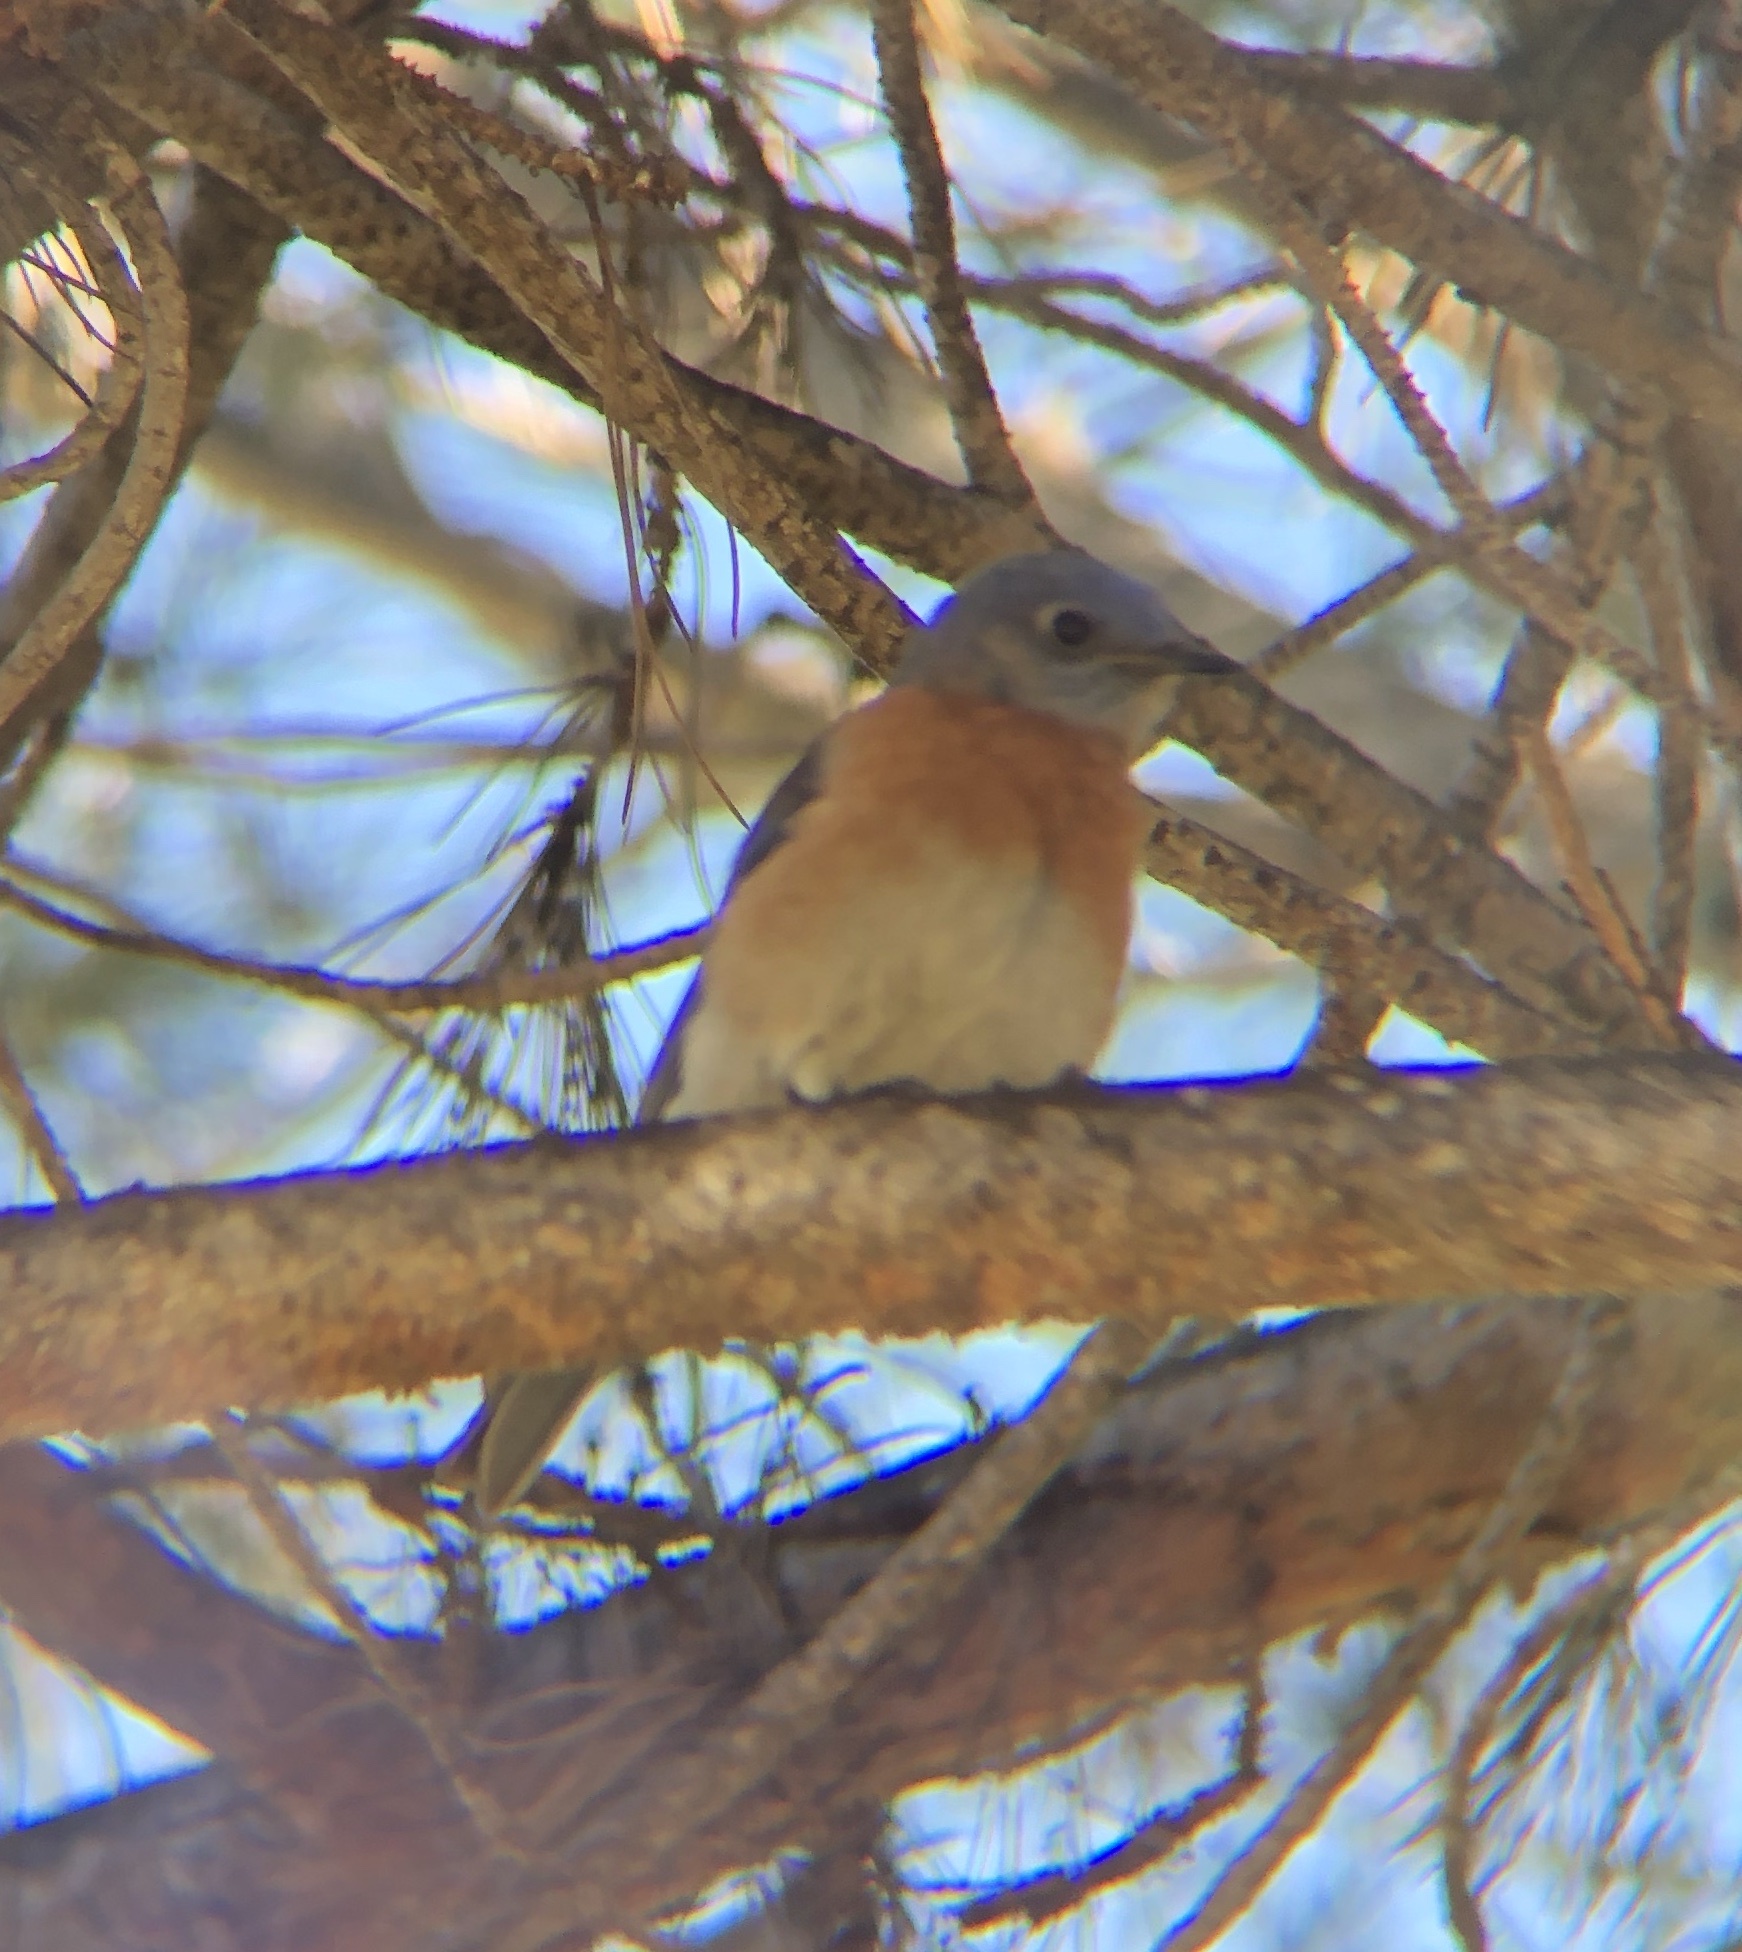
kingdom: Animalia
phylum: Chordata
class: Aves
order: Passeriformes
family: Turdidae
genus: Sialia
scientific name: Sialia mexicana
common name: Western bluebird
